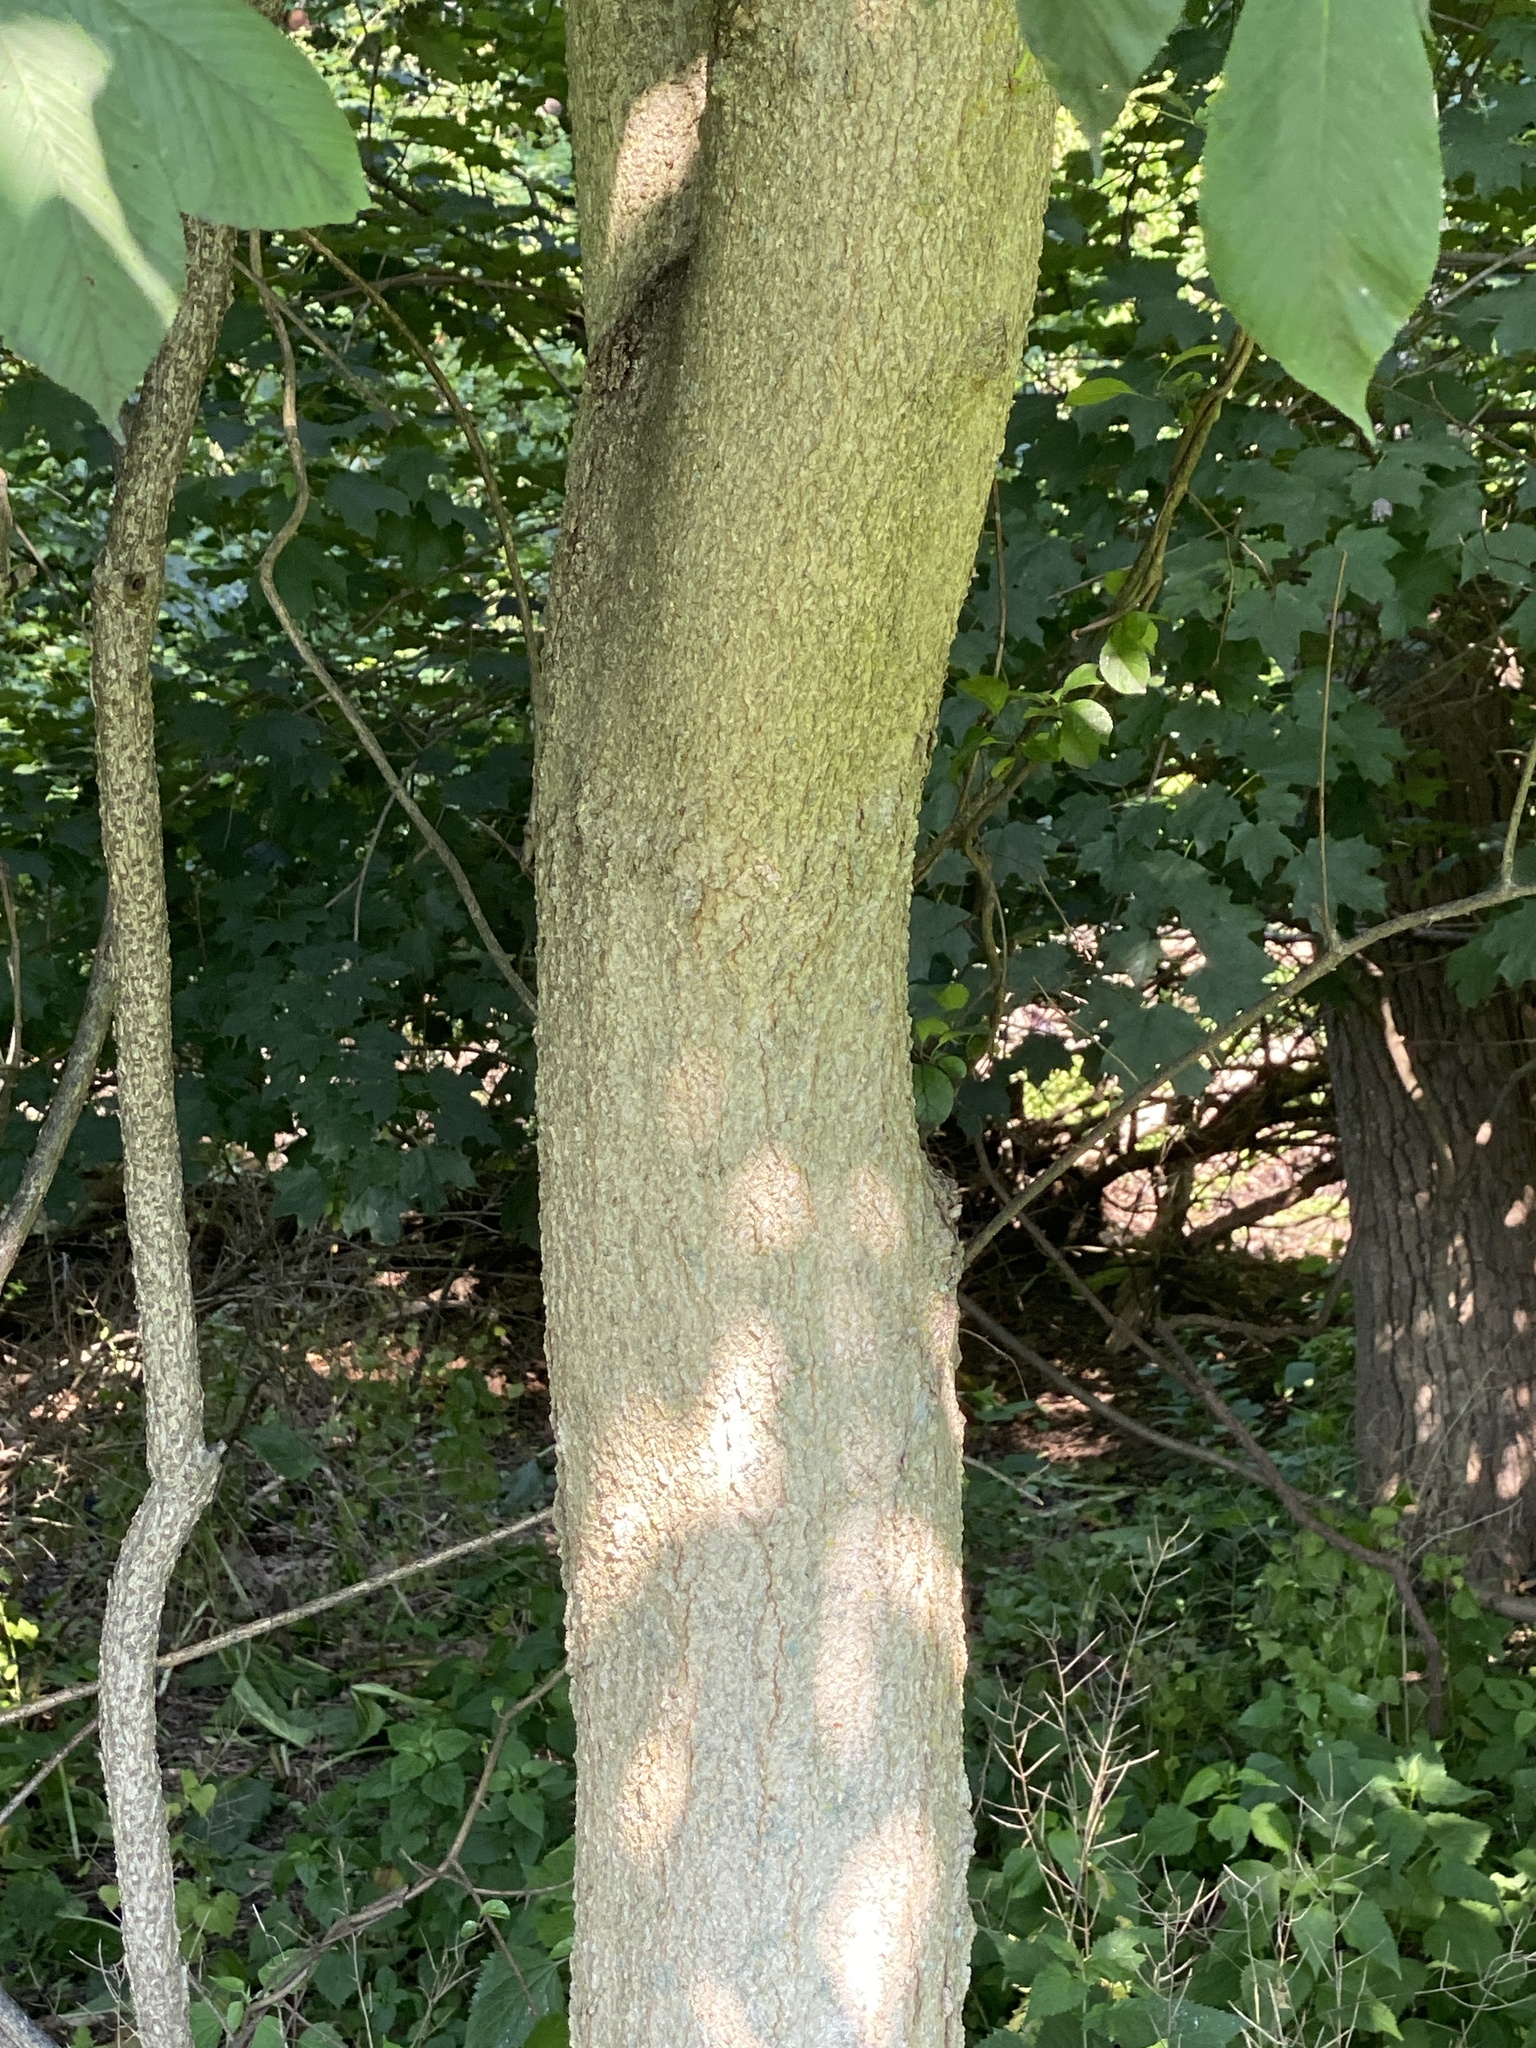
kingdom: Plantae
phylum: Tracheophyta
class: Magnoliopsida
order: Sapindales
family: Sapindaceae
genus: Aesculus
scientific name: Aesculus flava
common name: Yellow buckeye
